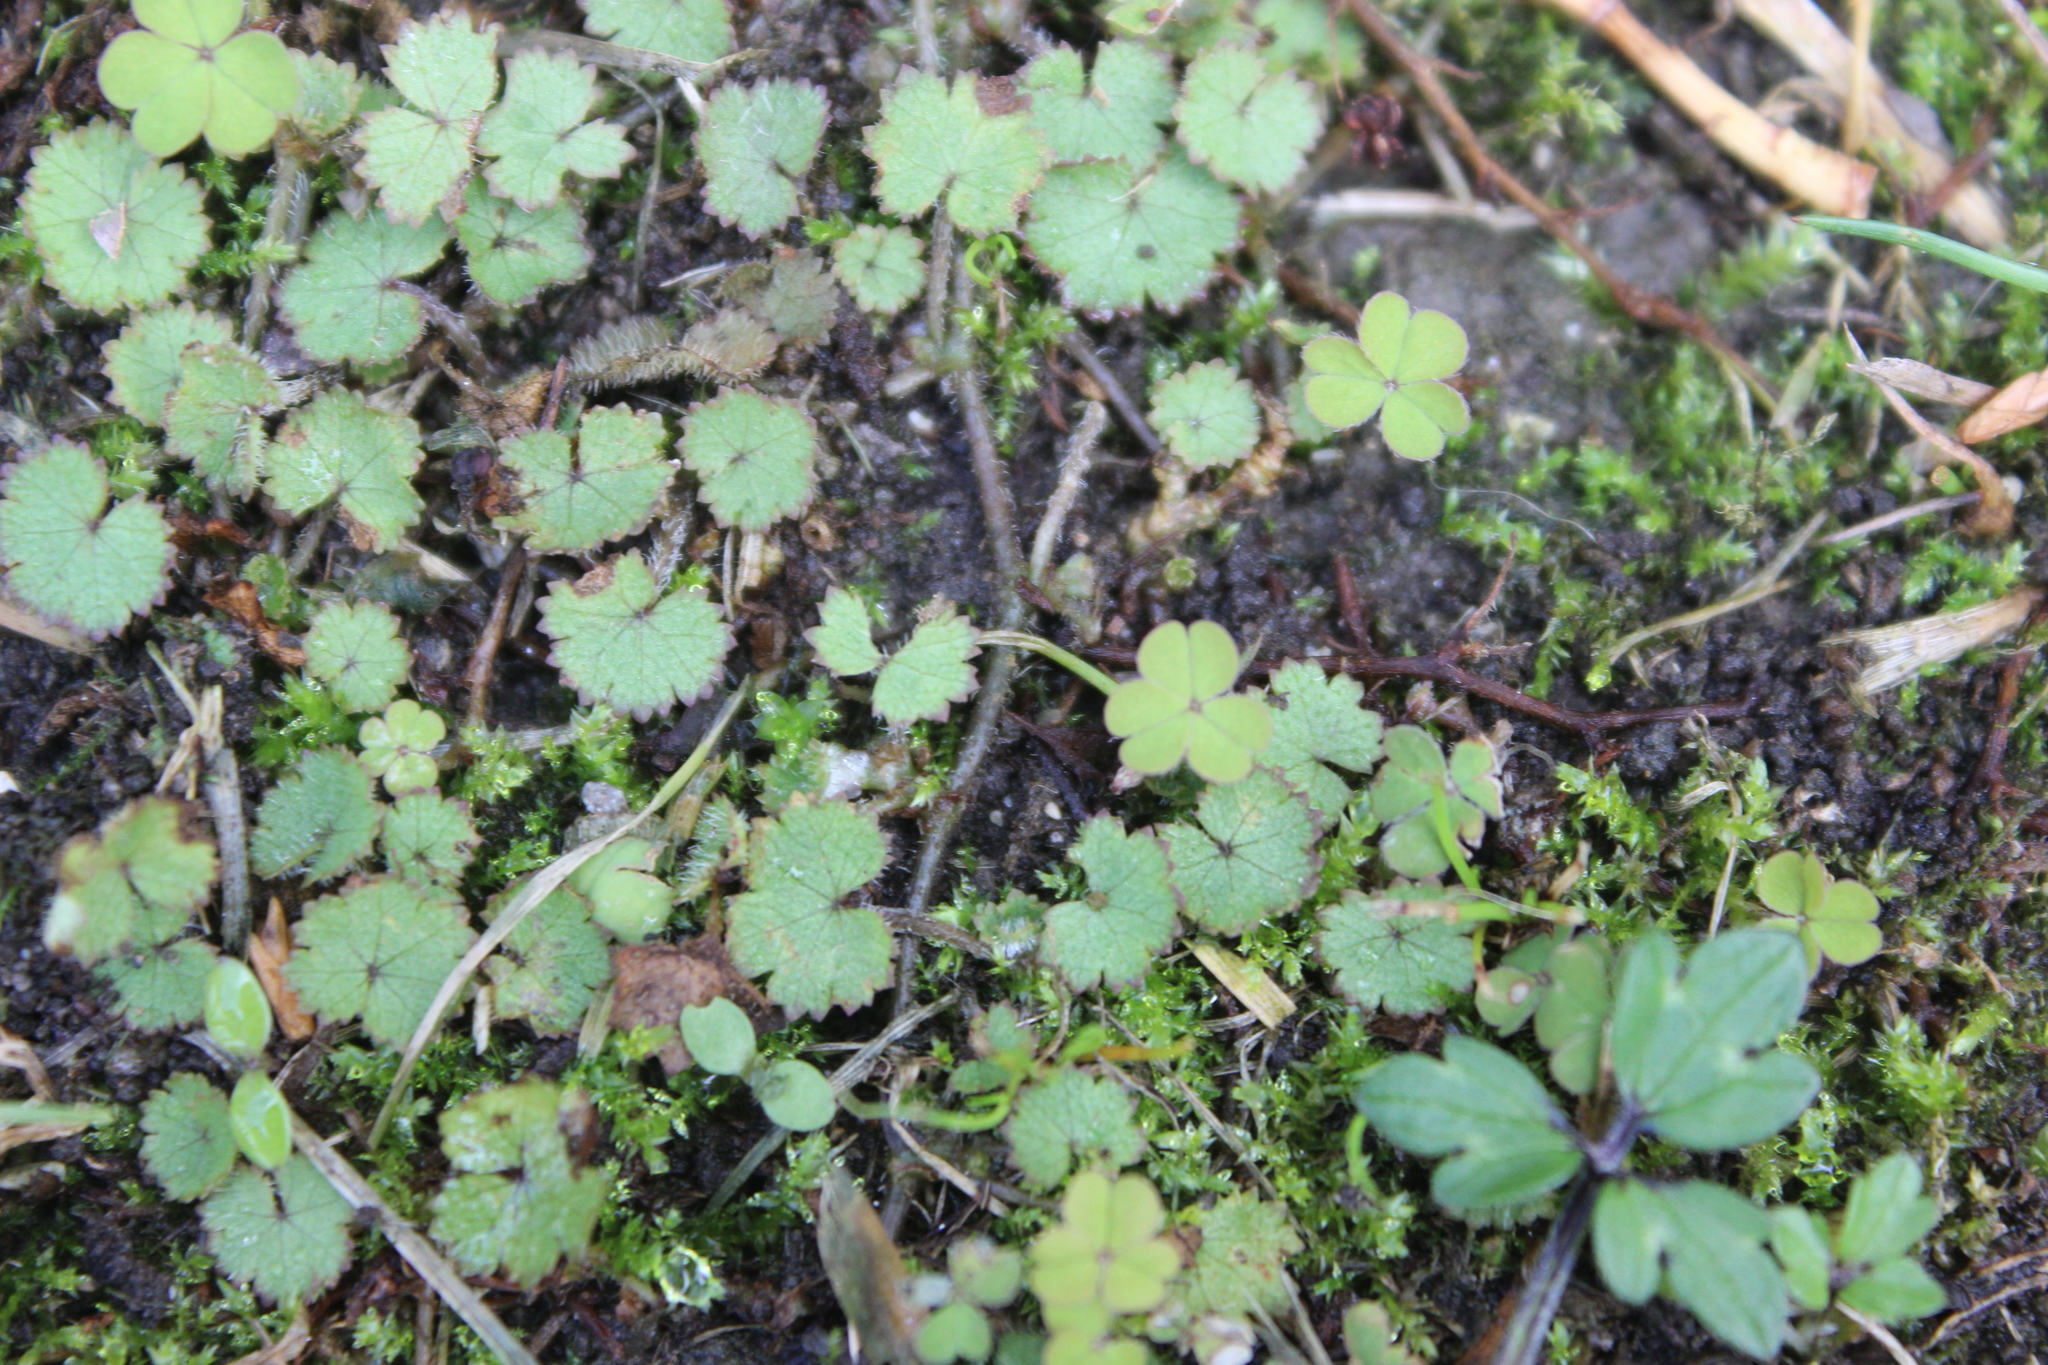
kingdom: Plantae
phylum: Tracheophyta
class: Magnoliopsida
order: Apiales
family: Araliaceae
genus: Hydrocotyle
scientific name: Hydrocotyle moschata
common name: Hairy pennywort
